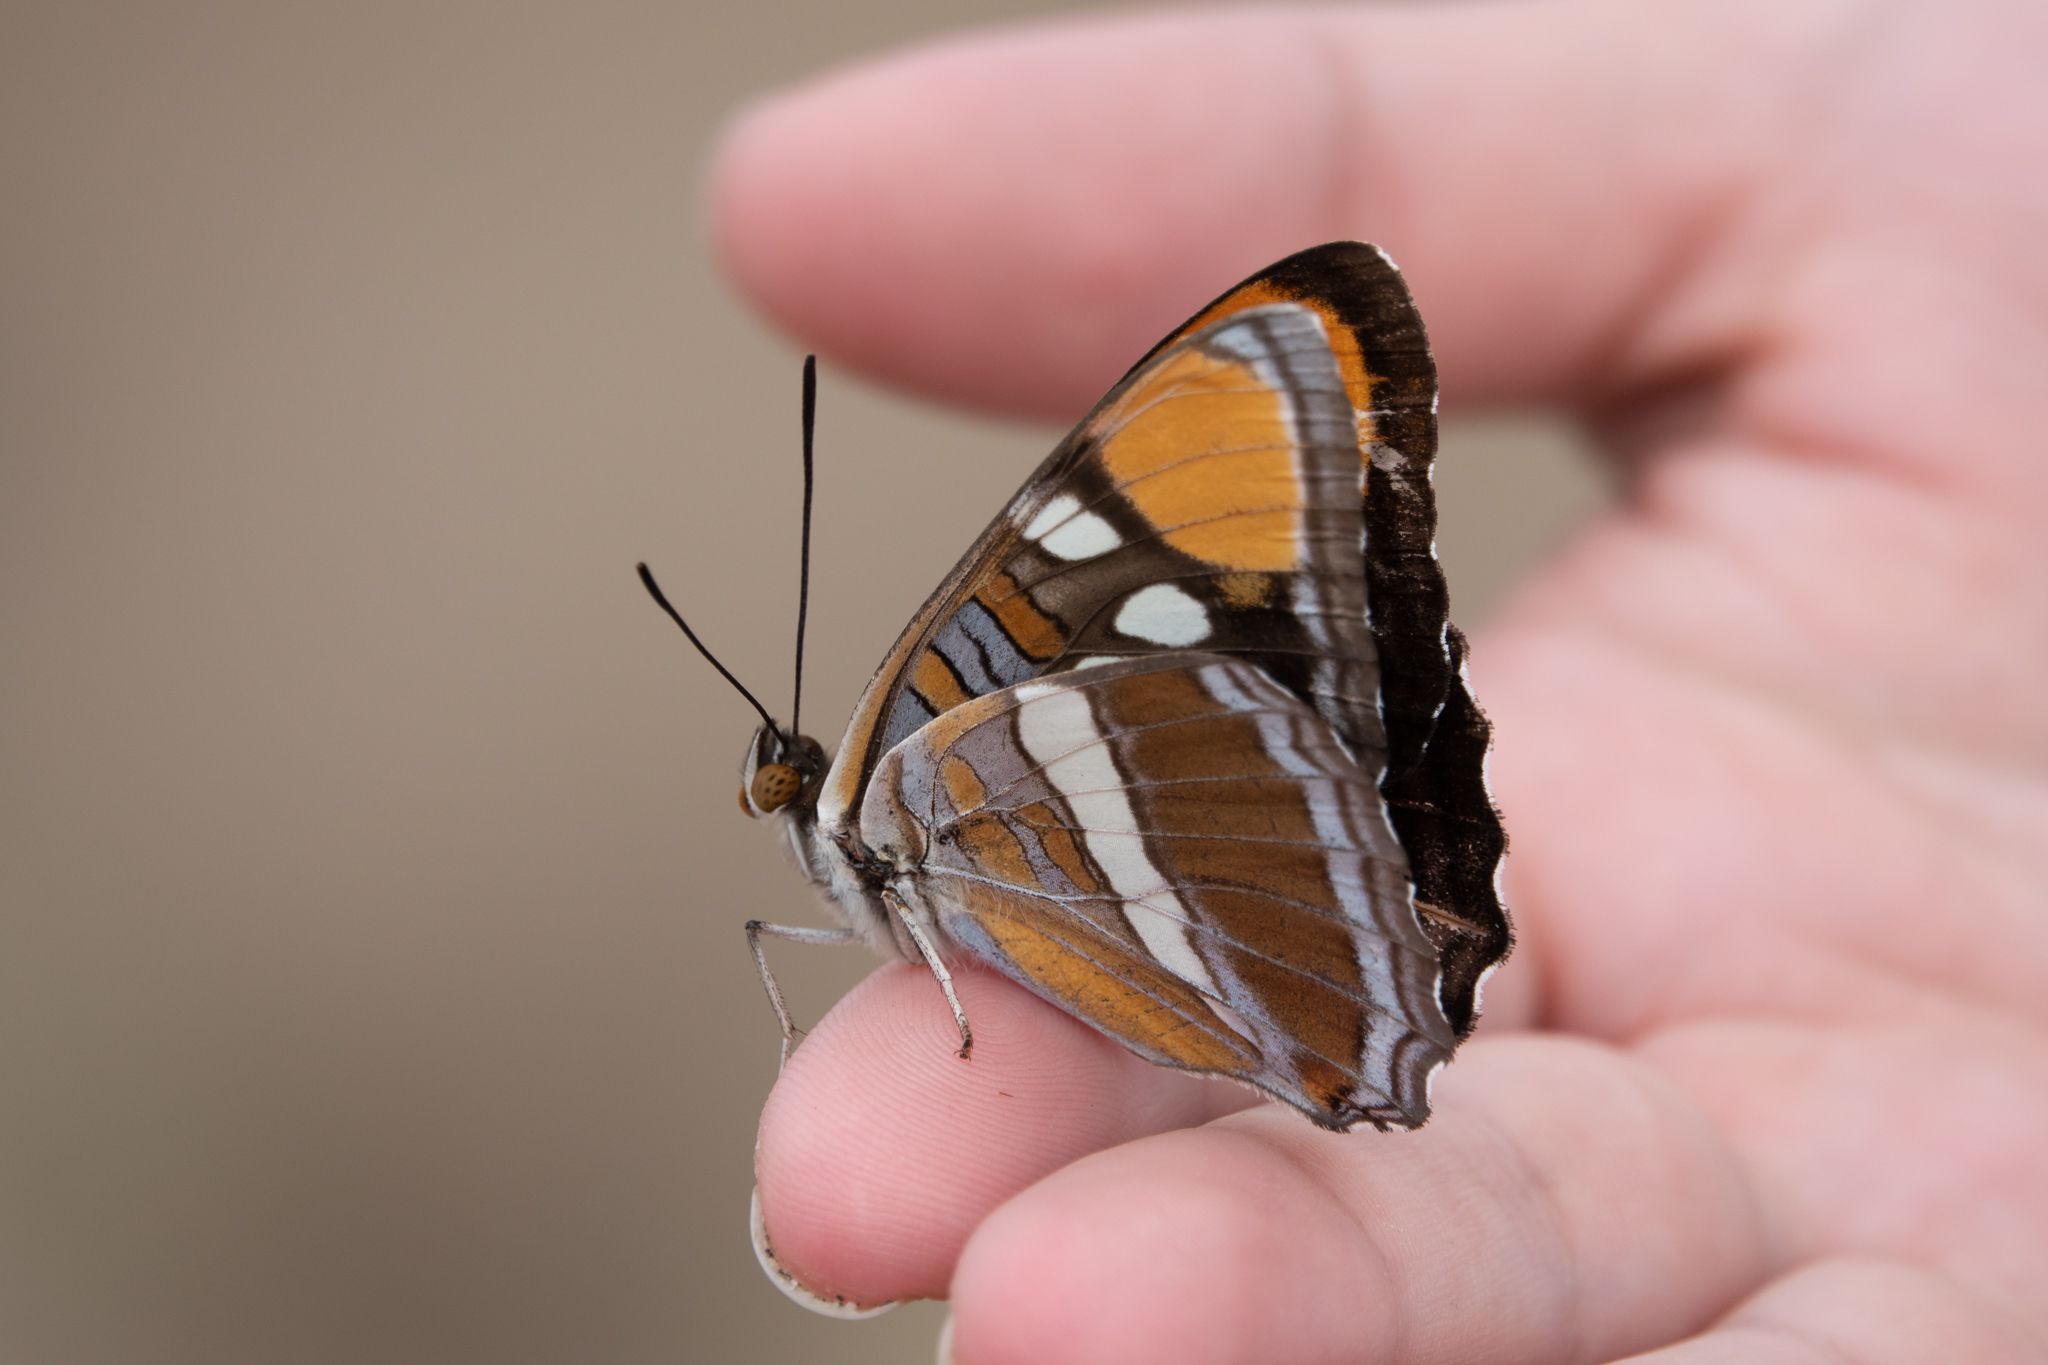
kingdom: Animalia
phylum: Arthropoda
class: Insecta
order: Lepidoptera
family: Nymphalidae
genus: Limenitis
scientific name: Limenitis bredowii
